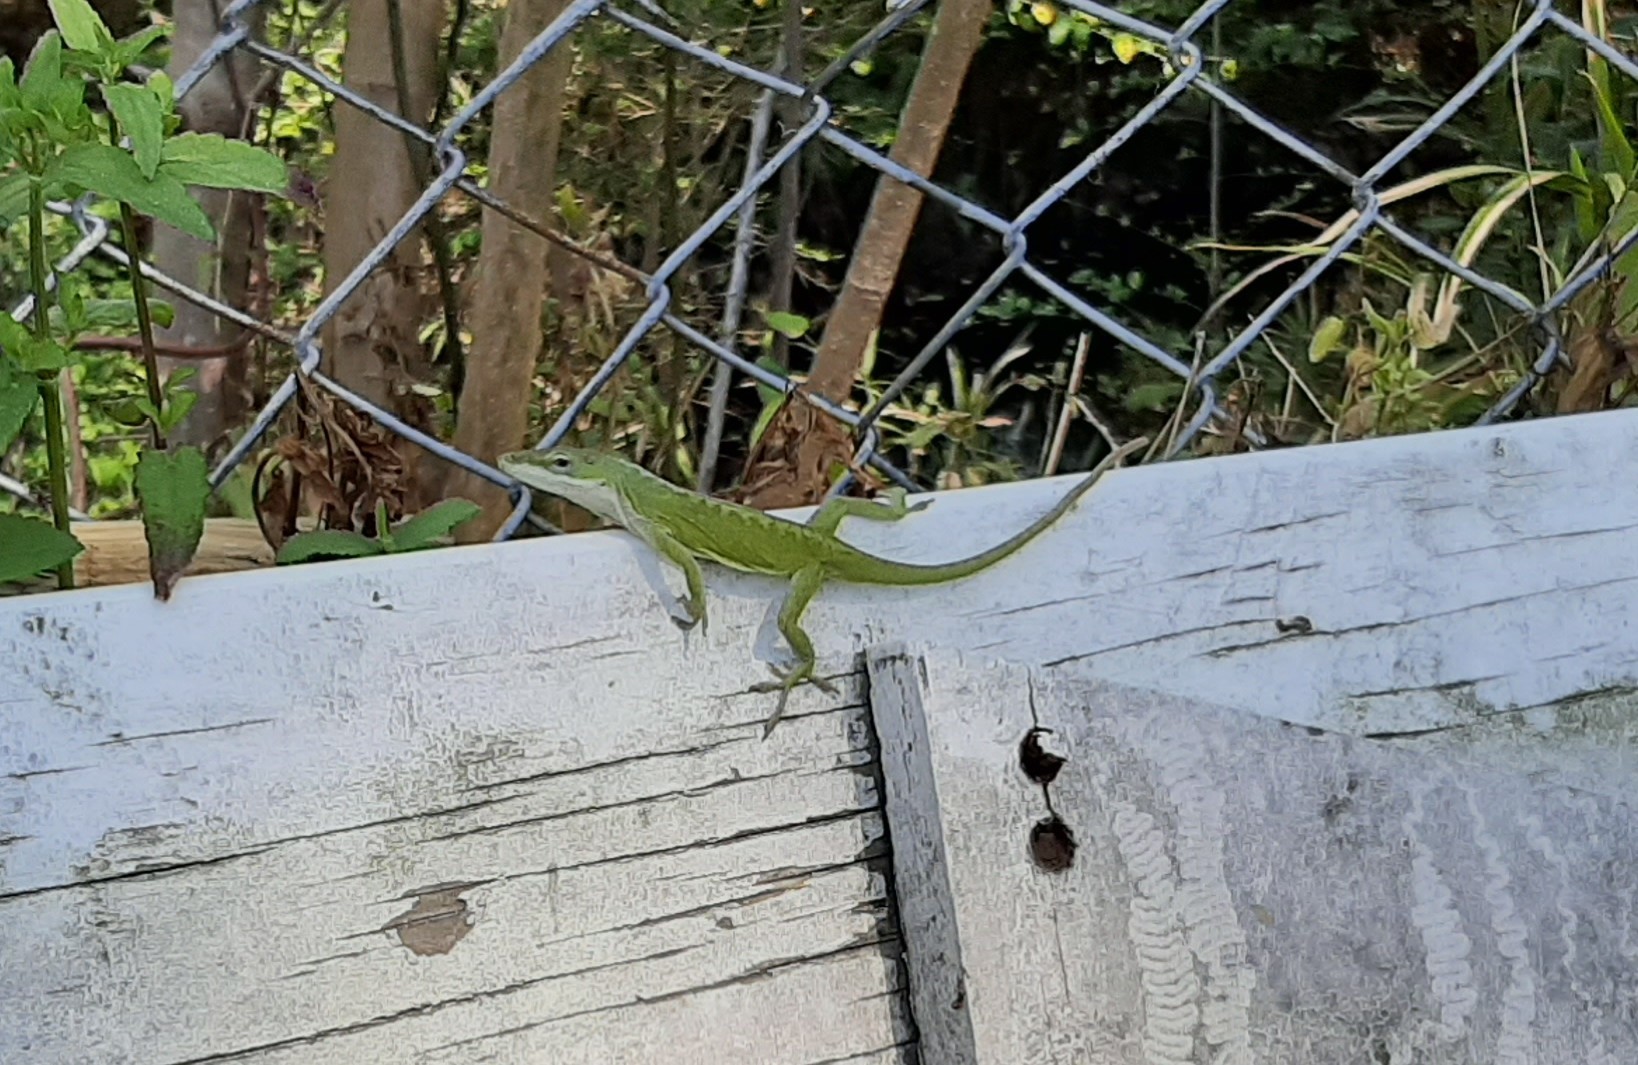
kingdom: Animalia
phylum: Chordata
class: Squamata
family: Dactyloidae
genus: Anolis
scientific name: Anolis carolinensis
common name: Green anole
